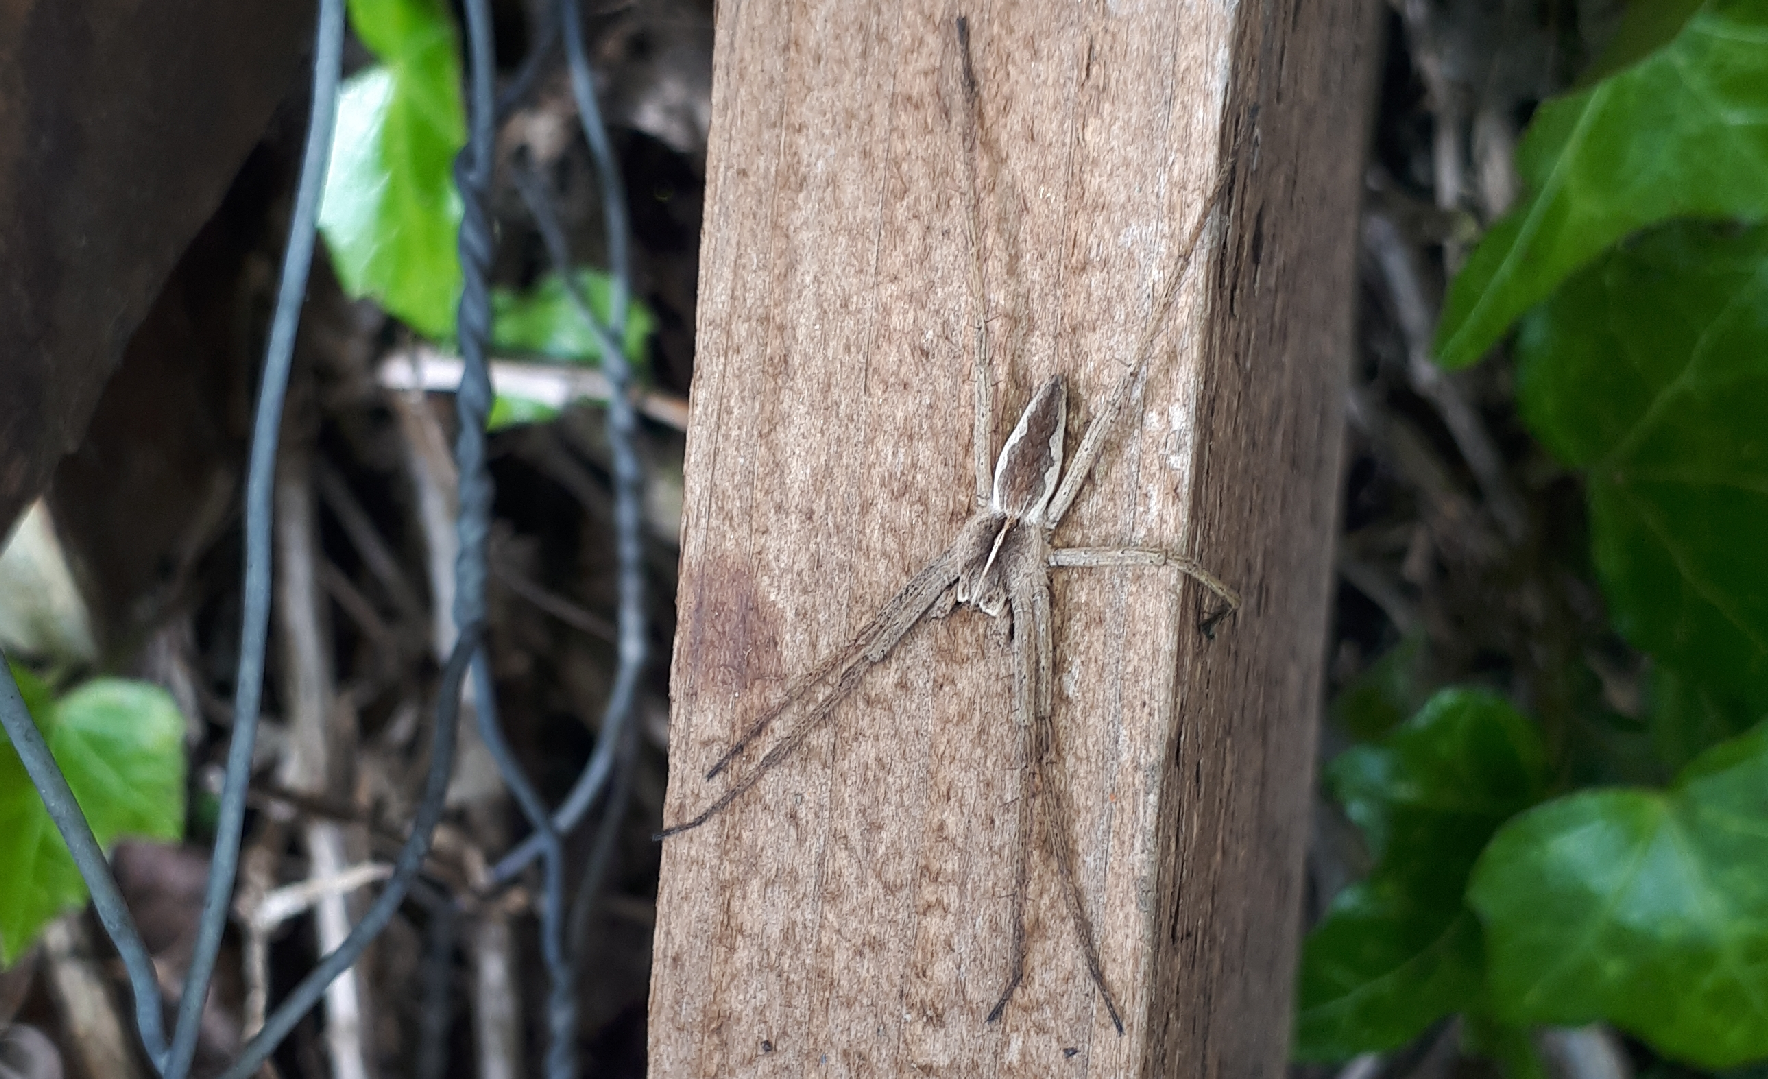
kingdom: Animalia
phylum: Arthropoda
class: Arachnida
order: Araneae
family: Pisauridae
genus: Pisaura
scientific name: Pisaura mirabilis
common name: Tent spider
